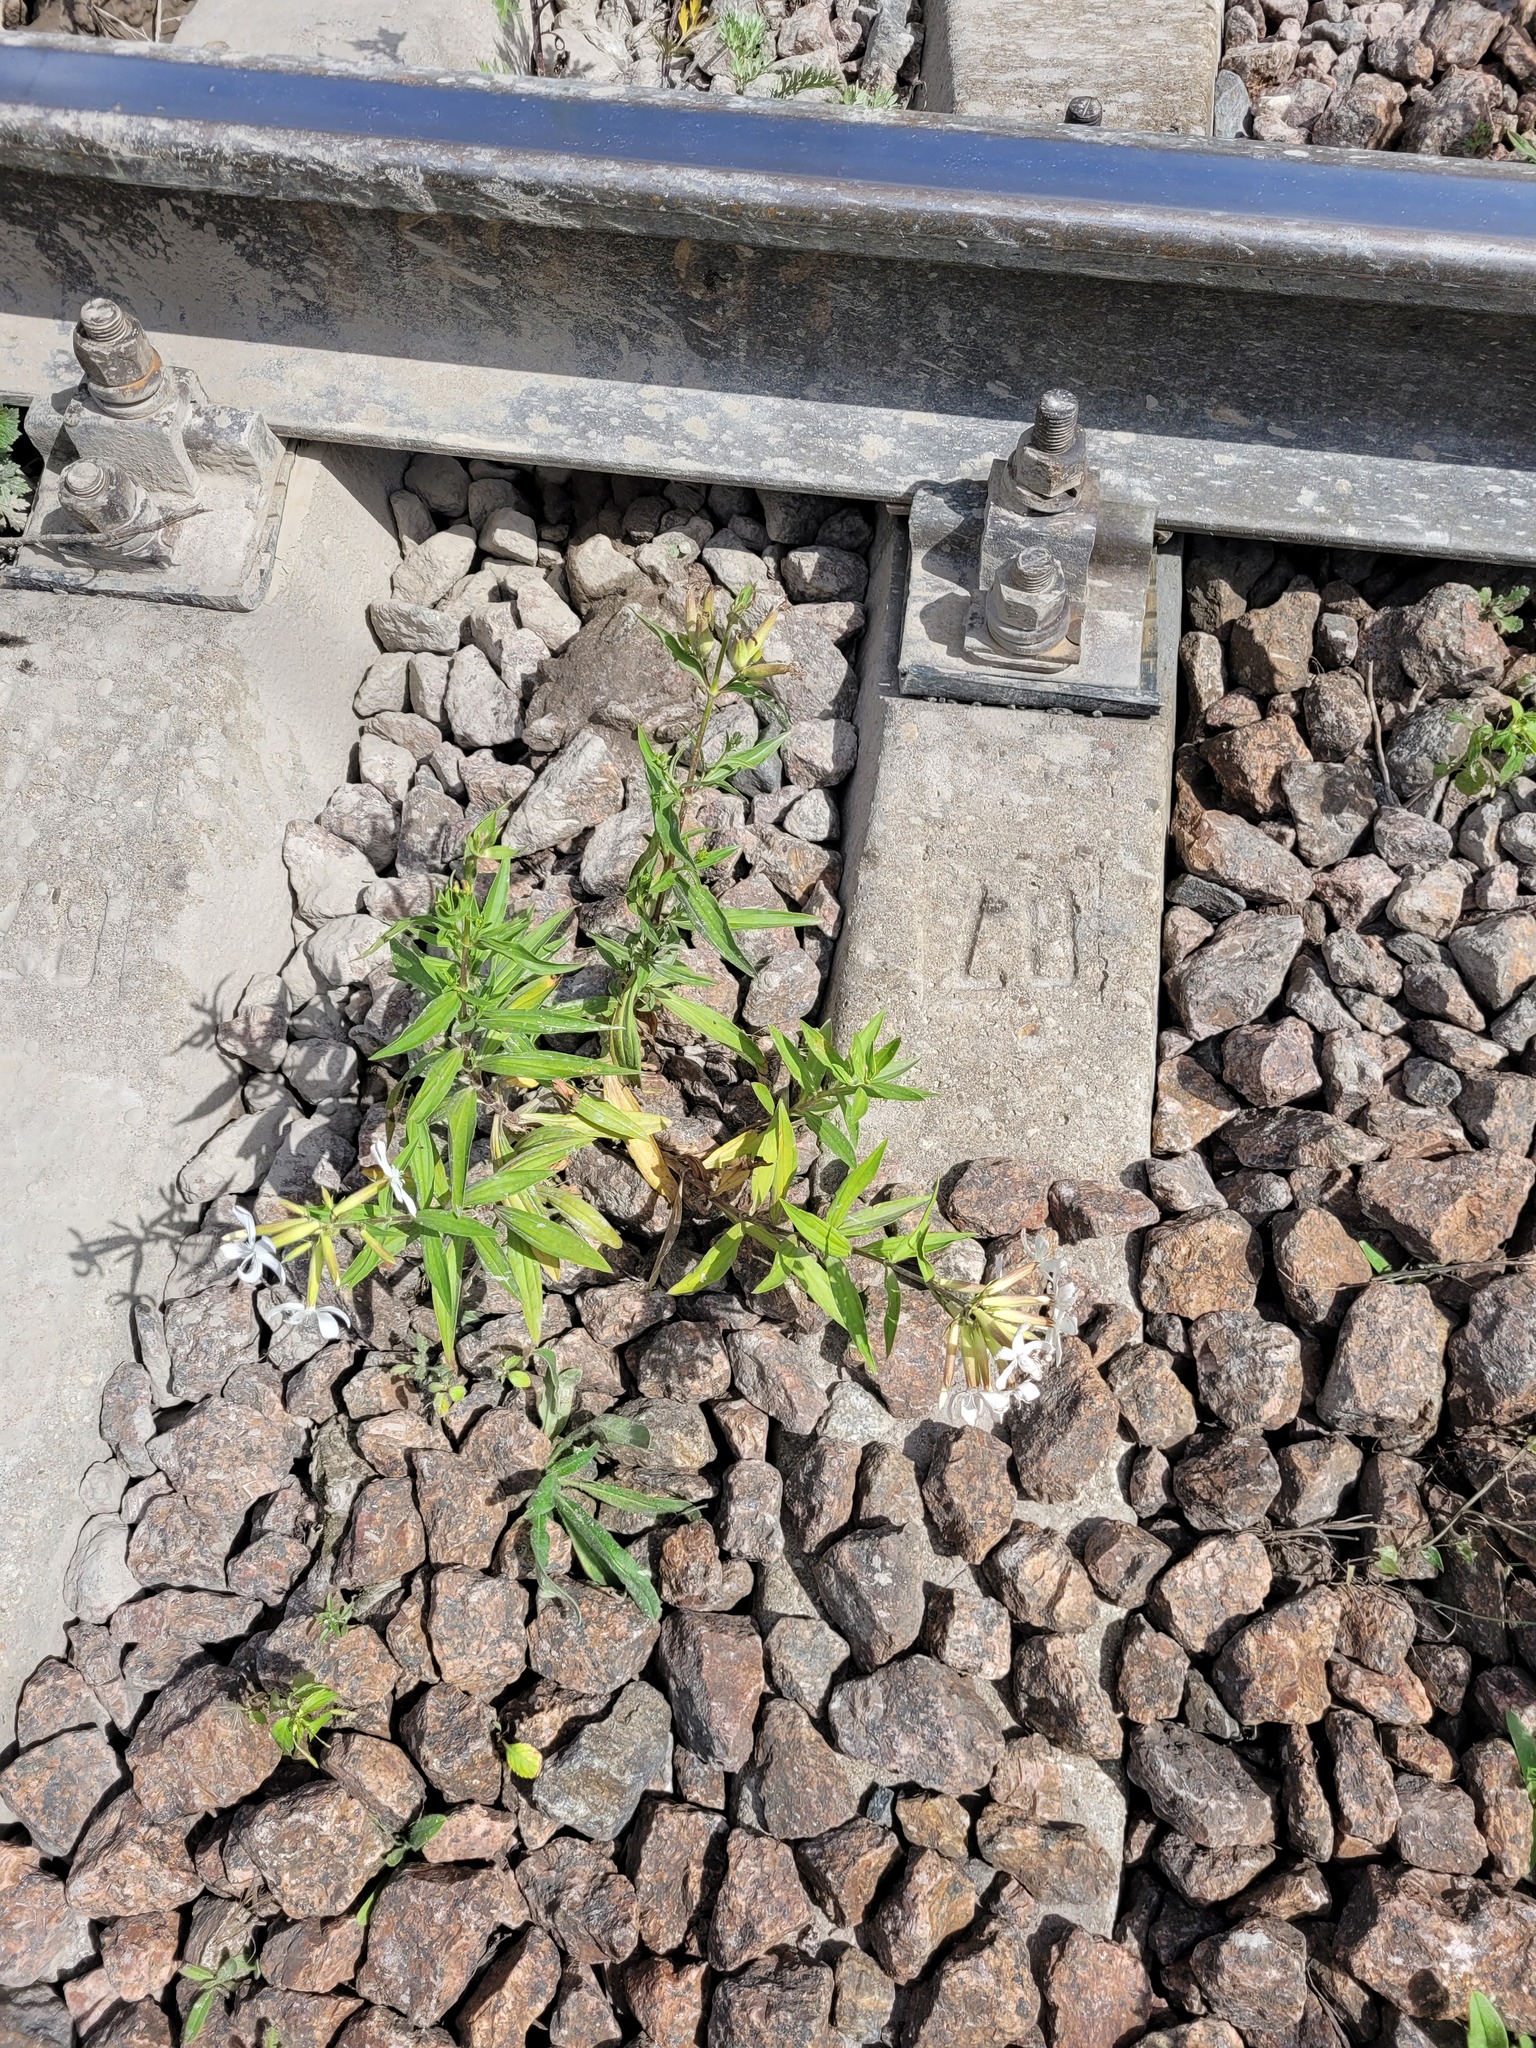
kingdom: Plantae
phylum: Tracheophyta
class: Magnoliopsida
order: Caryophyllales
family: Caryophyllaceae
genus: Saponaria
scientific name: Saponaria officinalis
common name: Soapwort
